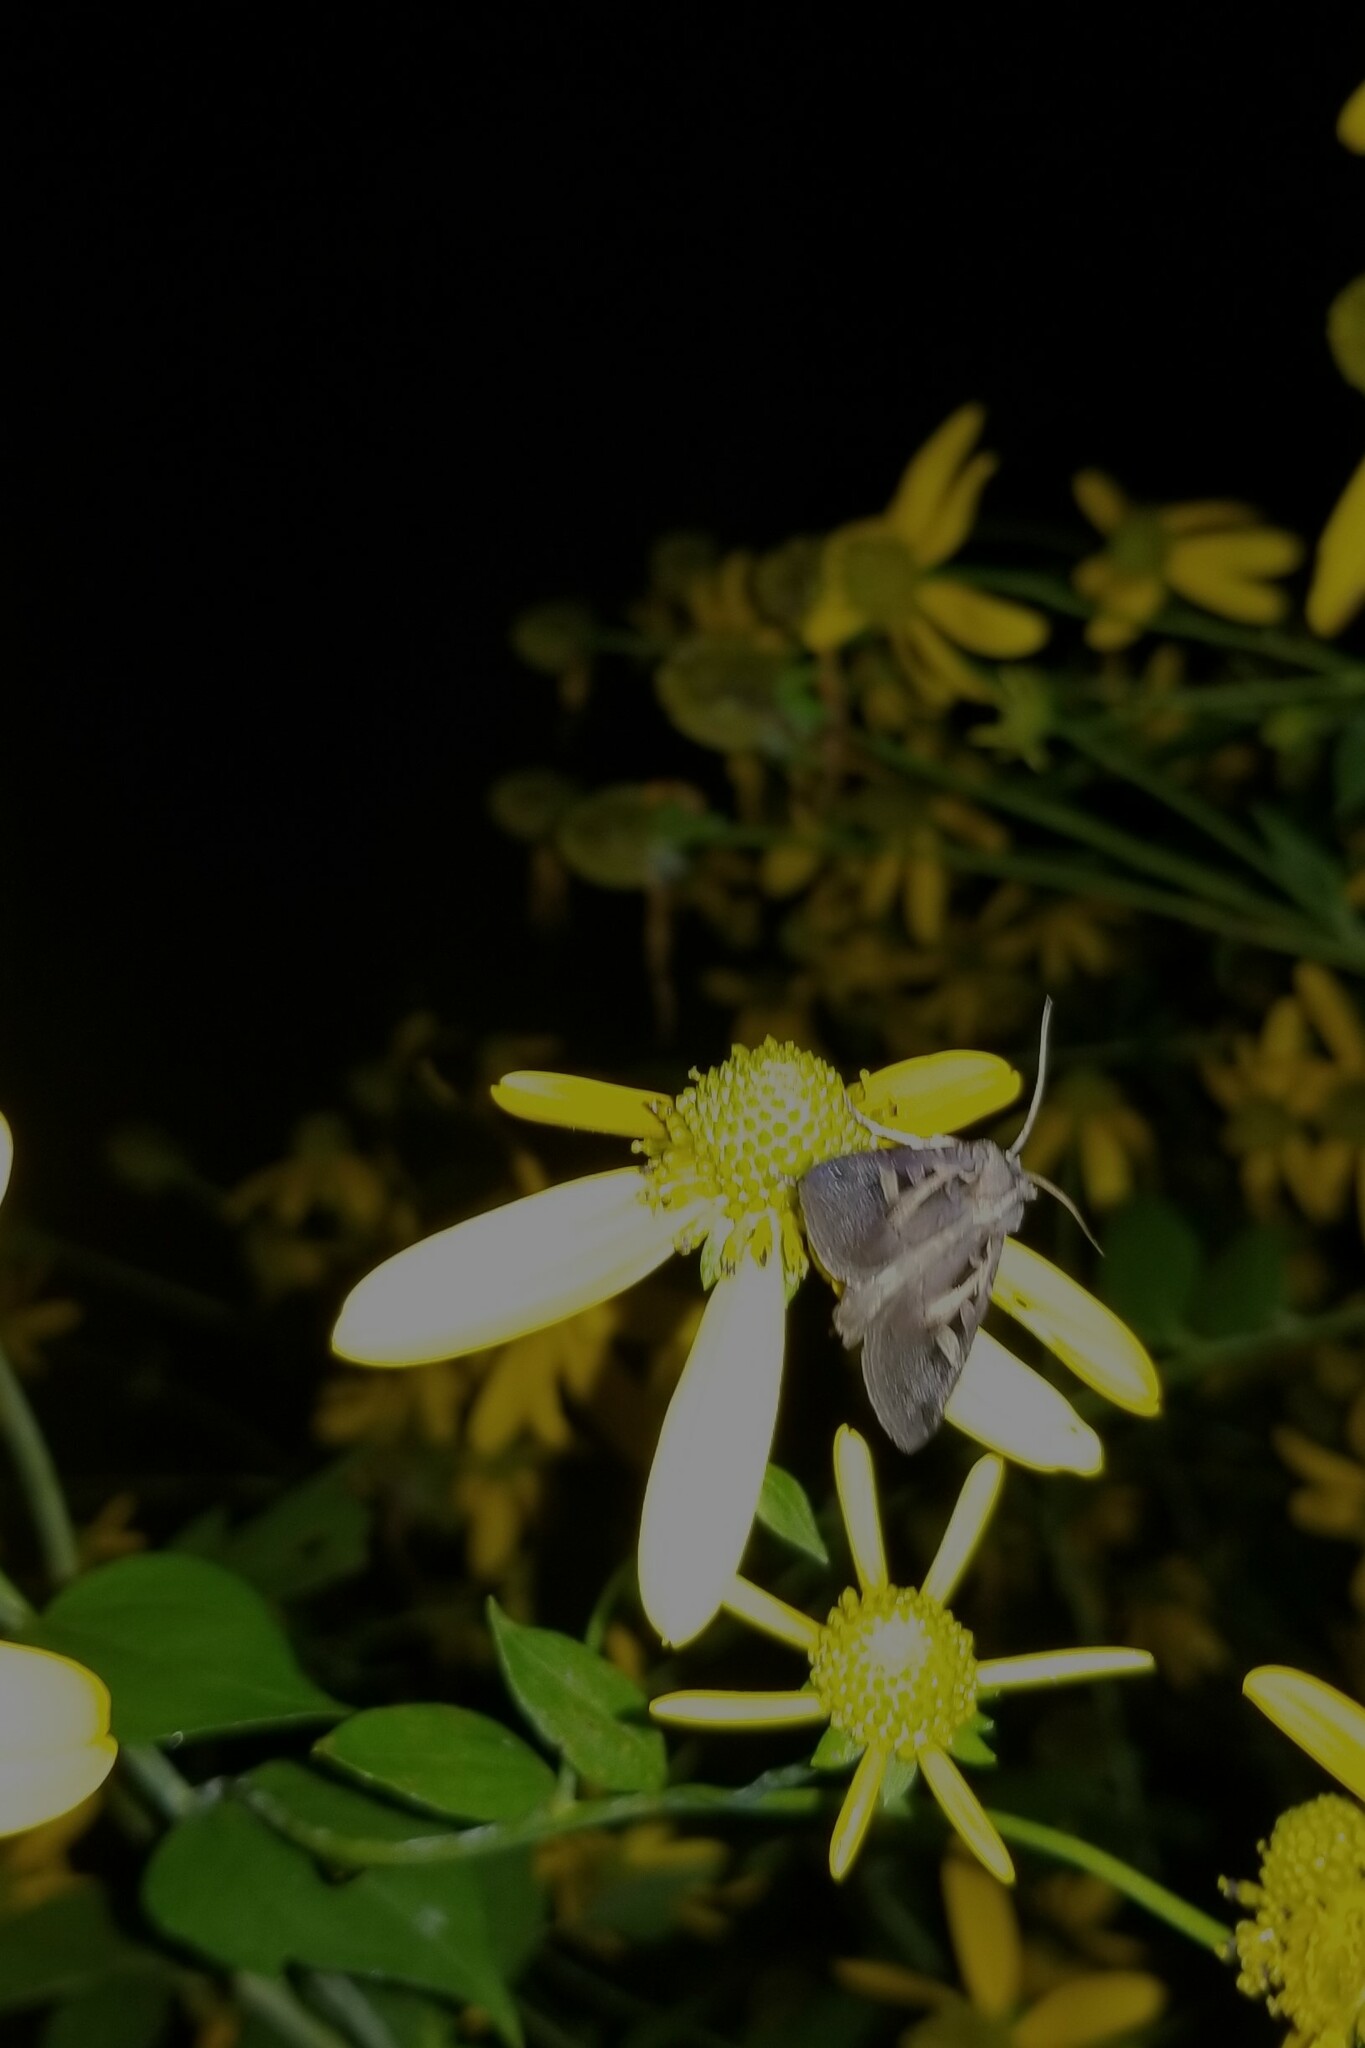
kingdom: Animalia
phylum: Arthropoda
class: Insecta
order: Lepidoptera
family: Noctuidae
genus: Feltia
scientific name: Feltia herilis
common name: Master's dart
